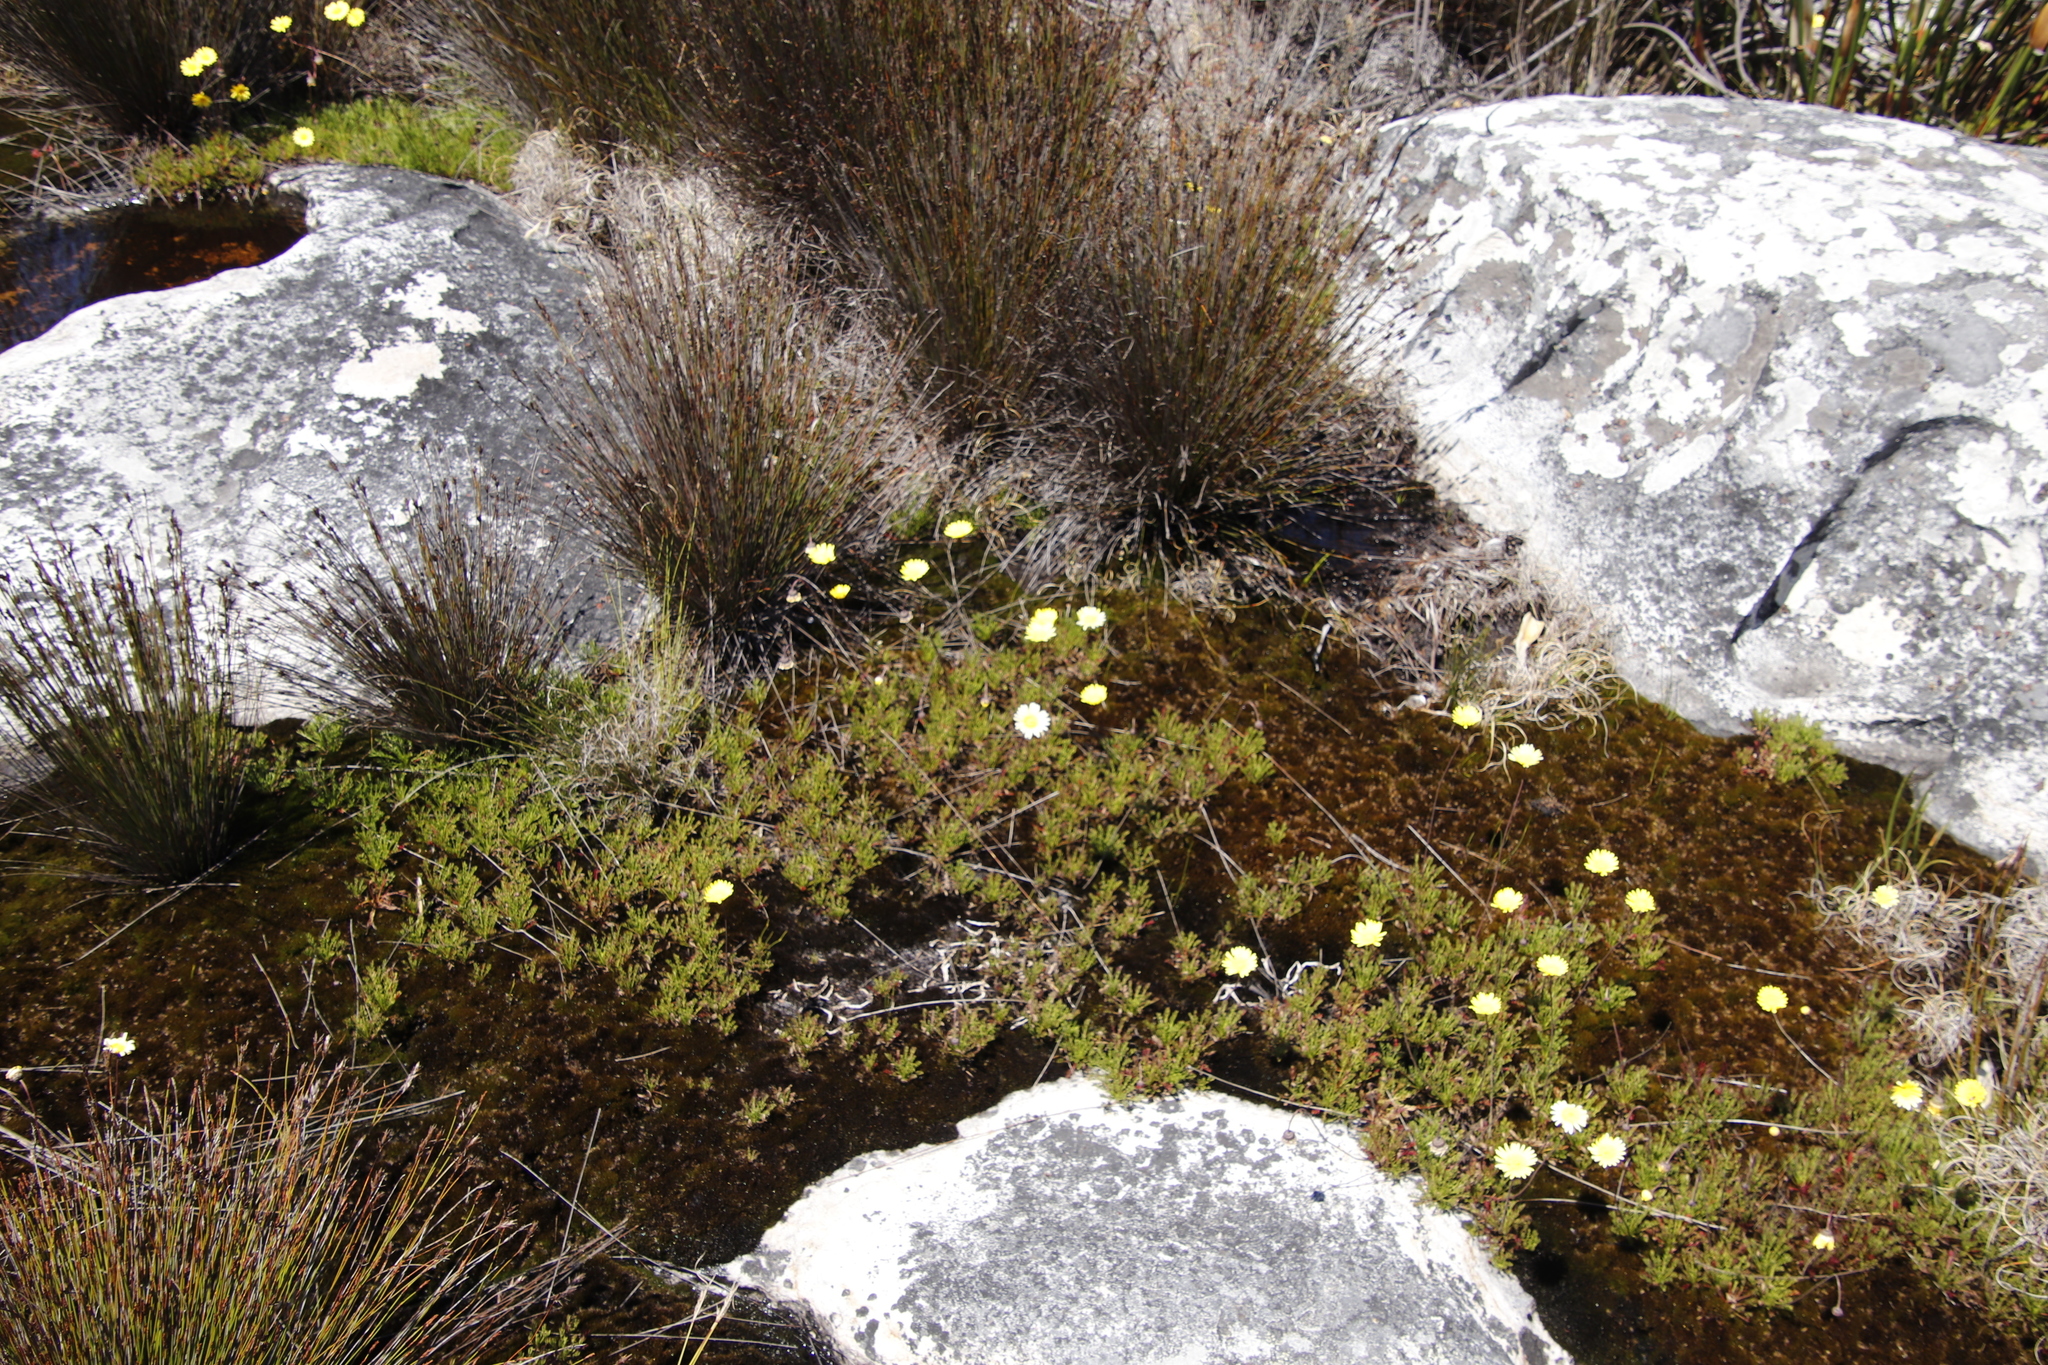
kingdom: Plantae
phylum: Tracheophyta
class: Magnoliopsida
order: Asterales
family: Asteraceae
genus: Ursinia
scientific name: Ursinia nudicaulis
